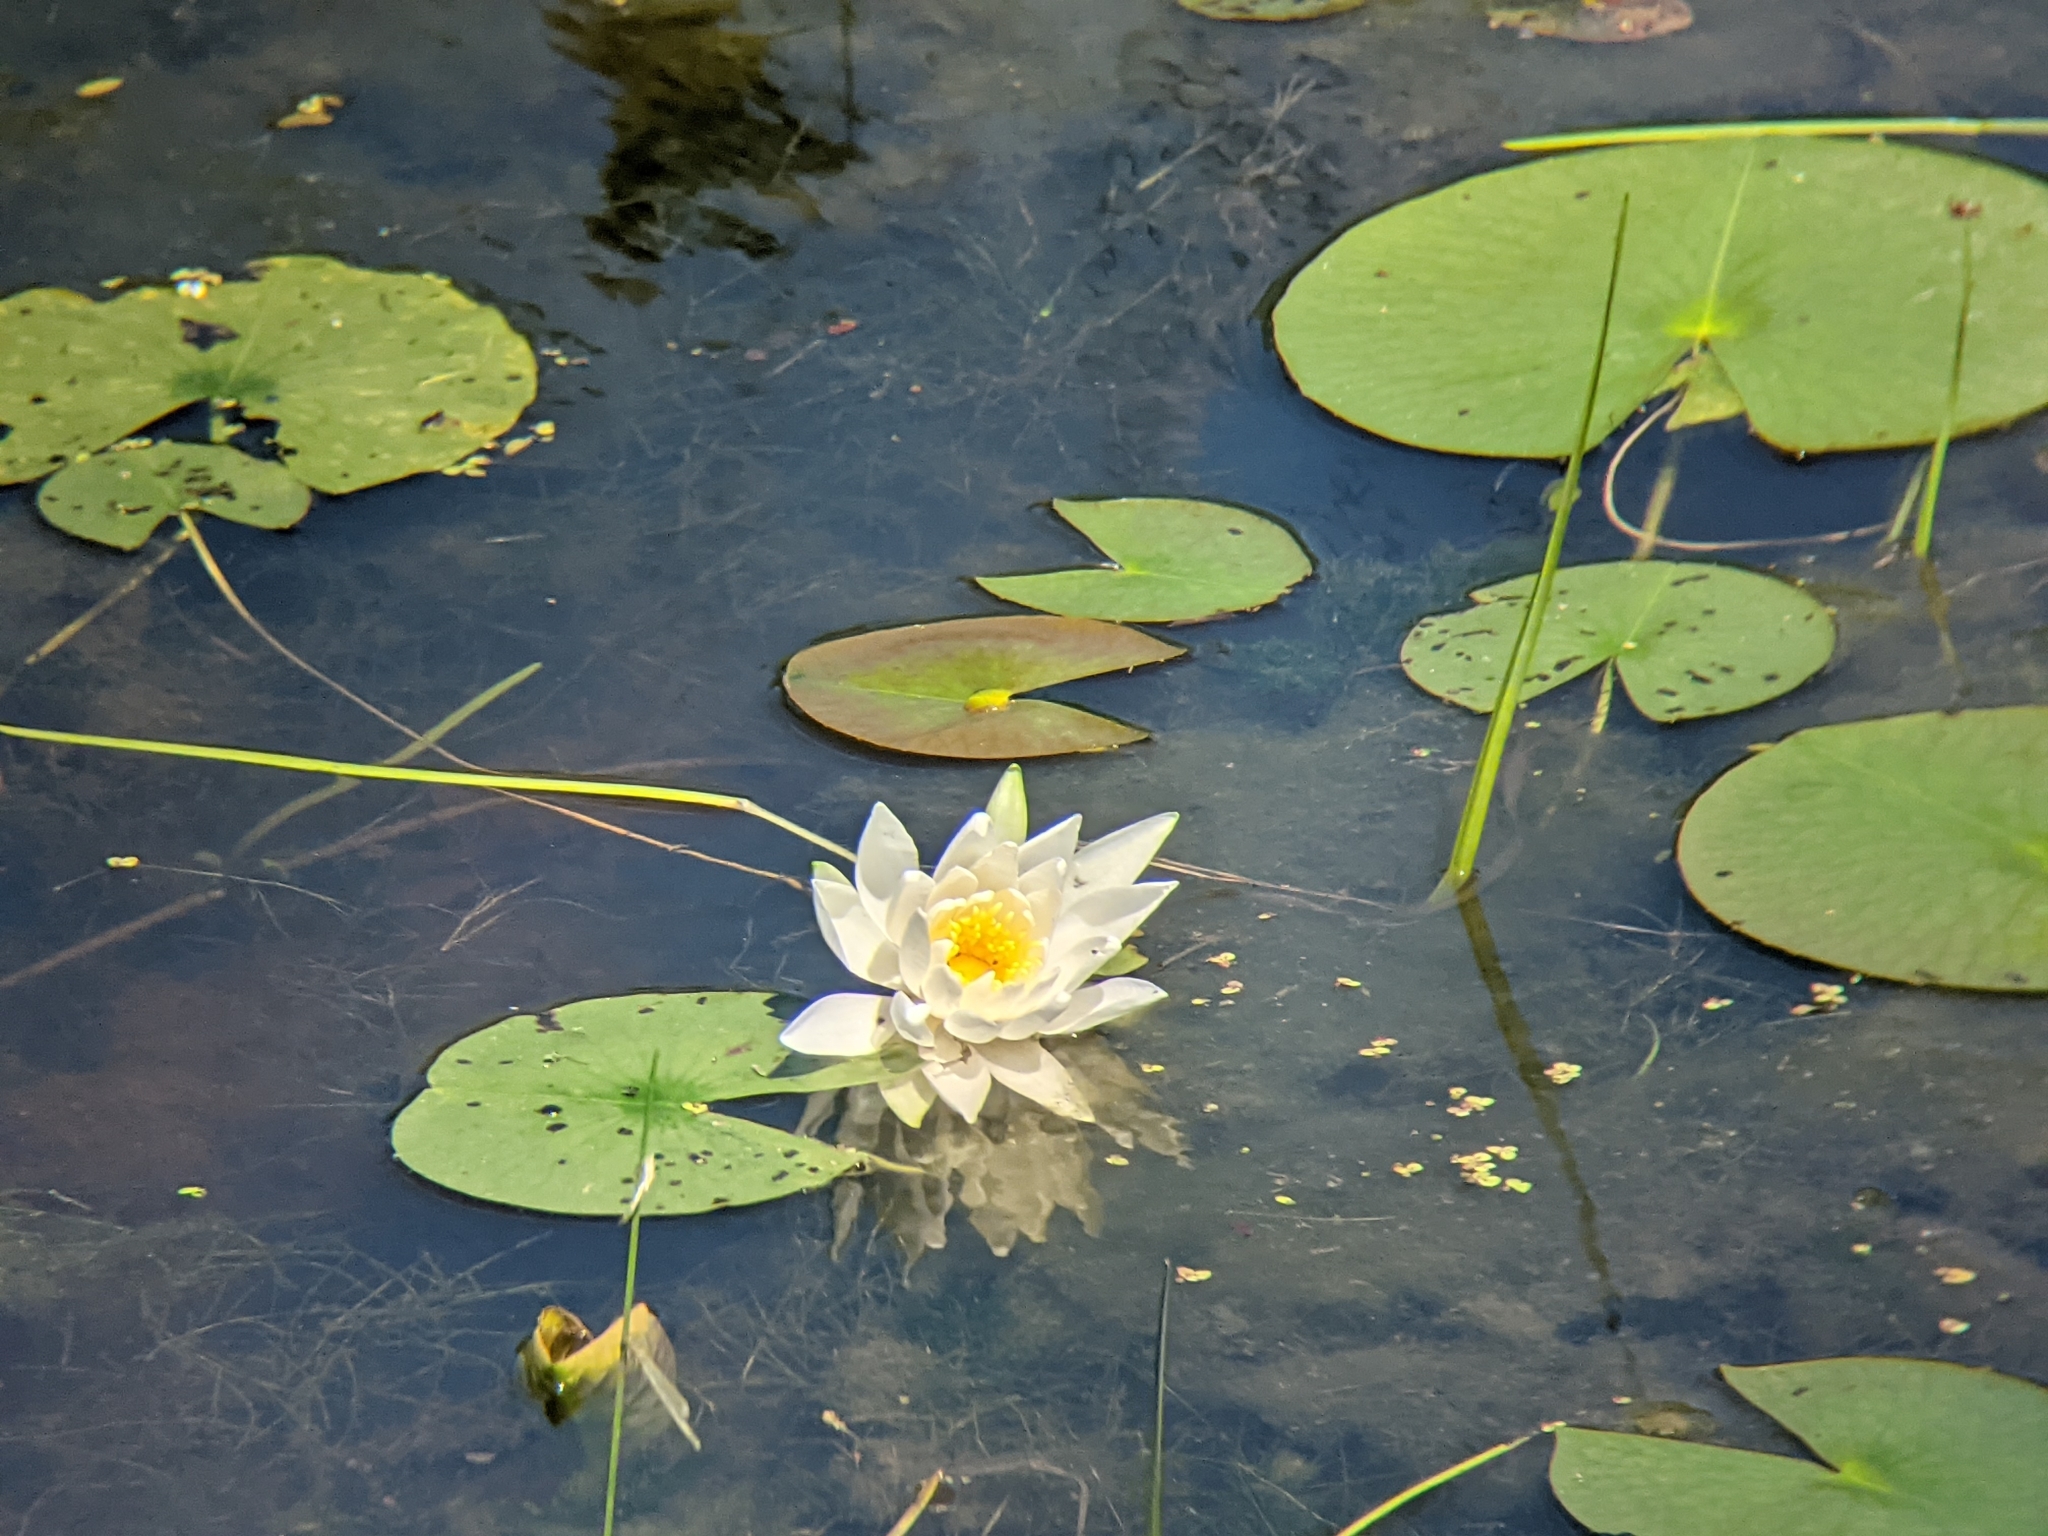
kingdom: Plantae
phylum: Tracheophyta
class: Magnoliopsida
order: Nymphaeales
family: Nymphaeaceae
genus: Nymphaea
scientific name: Nymphaea odorata
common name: Fragrant water-lily
